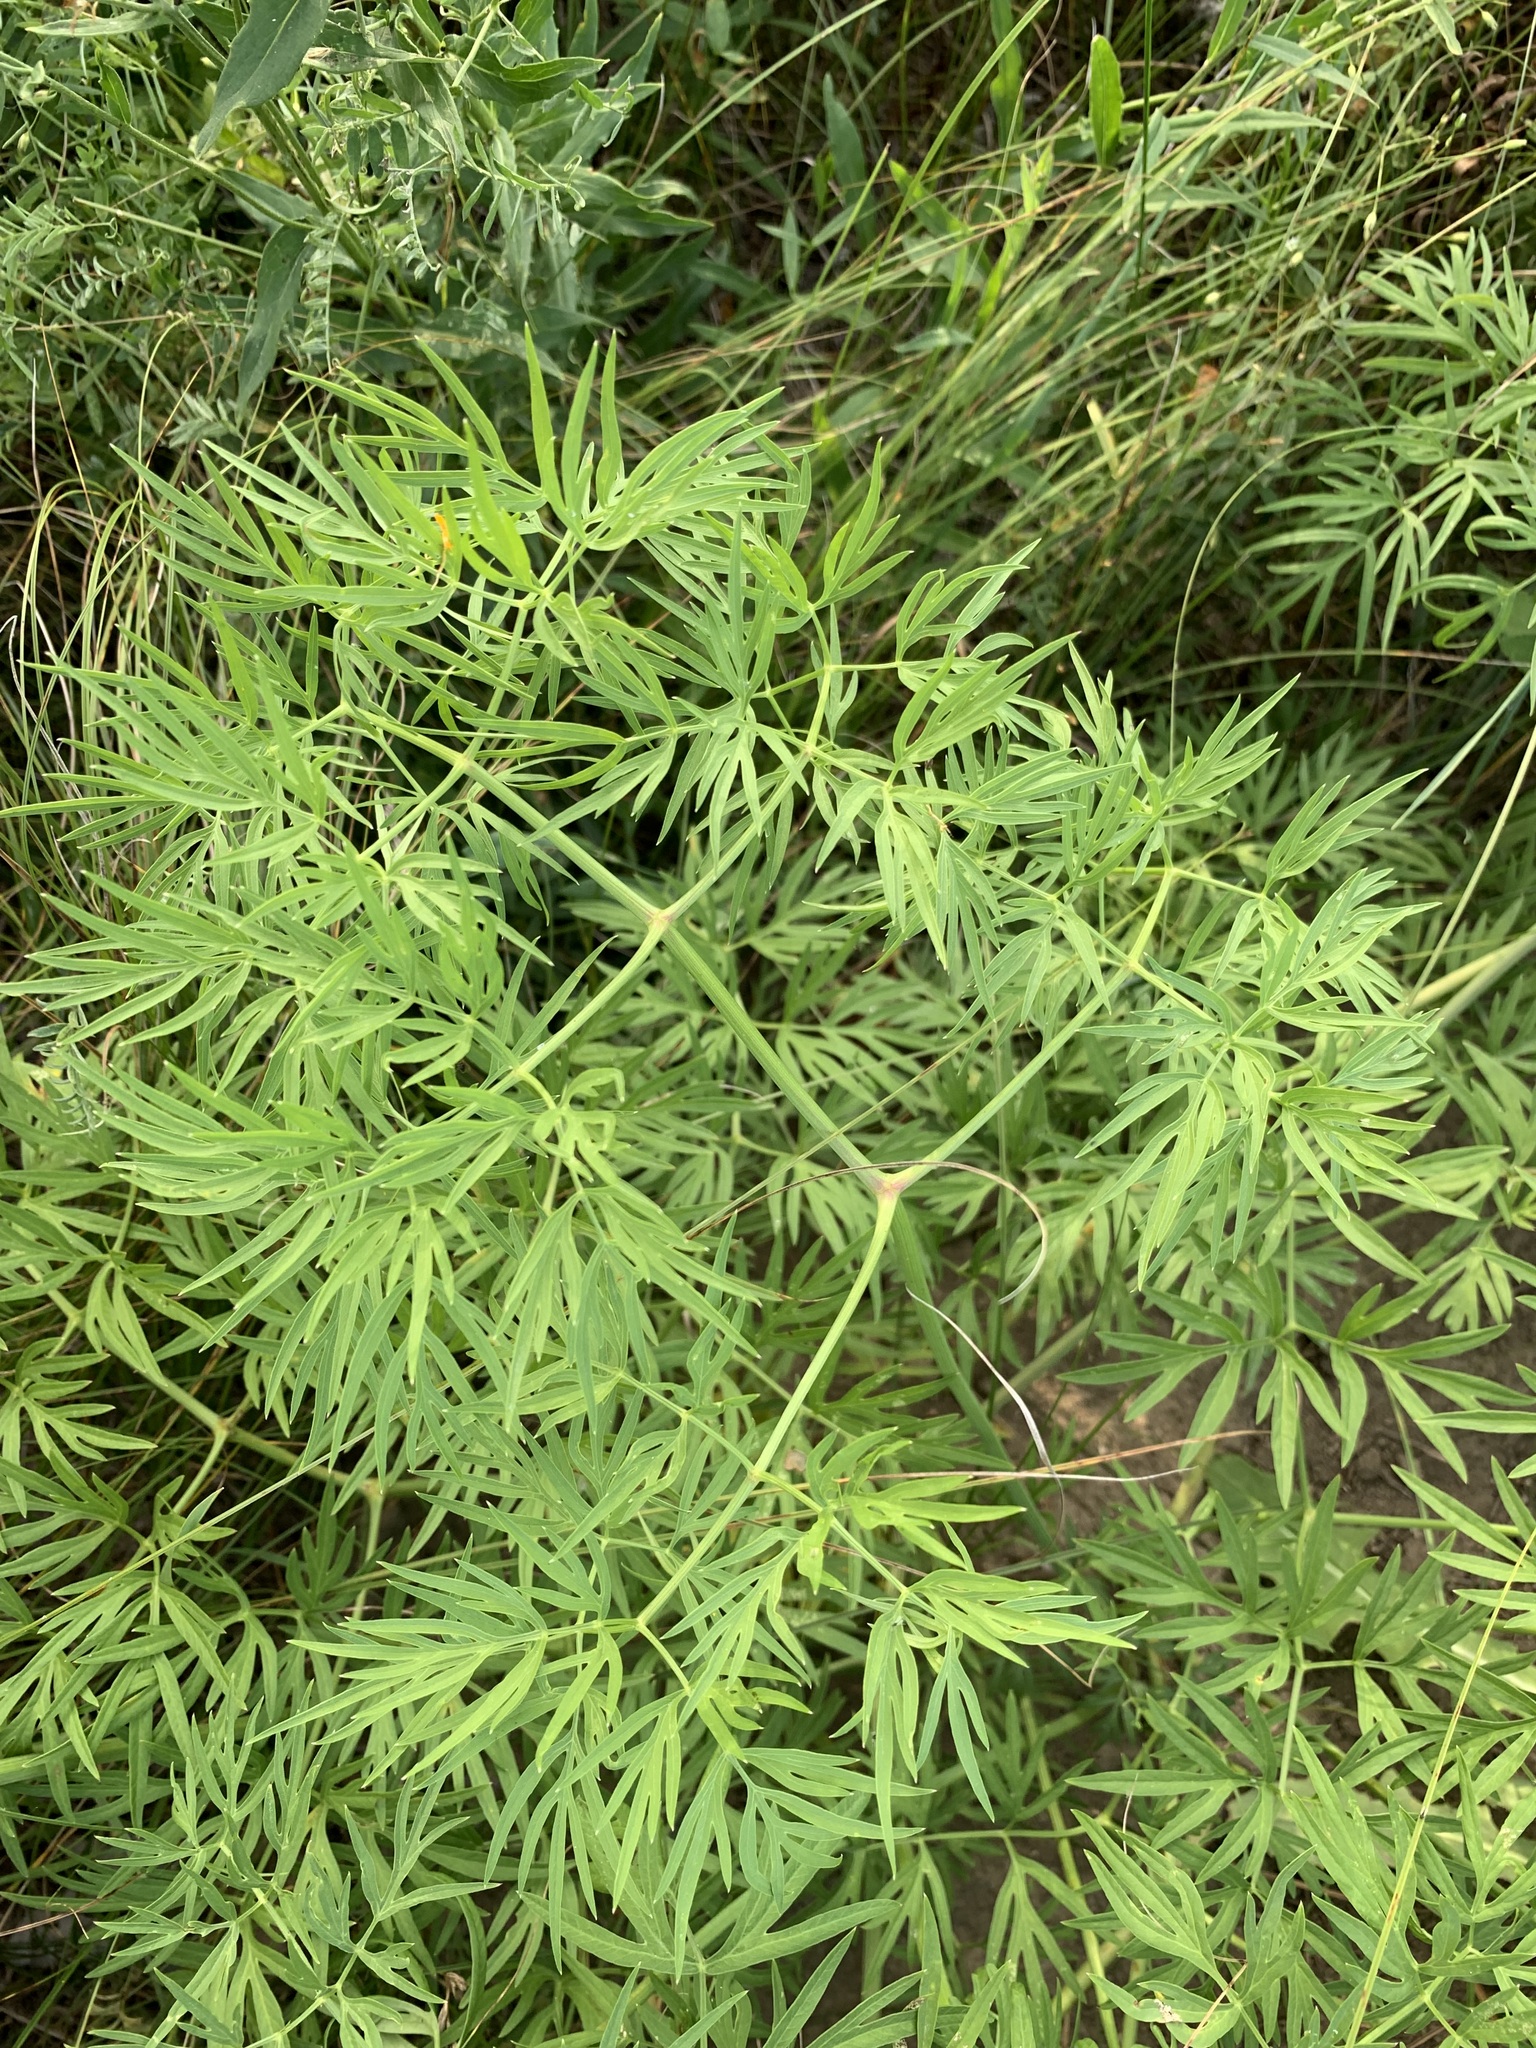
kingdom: Plantae
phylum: Tracheophyta
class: Magnoliopsida
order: Apiales
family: Apiaceae
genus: Cenolophium
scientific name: Cenolophium fischeri
